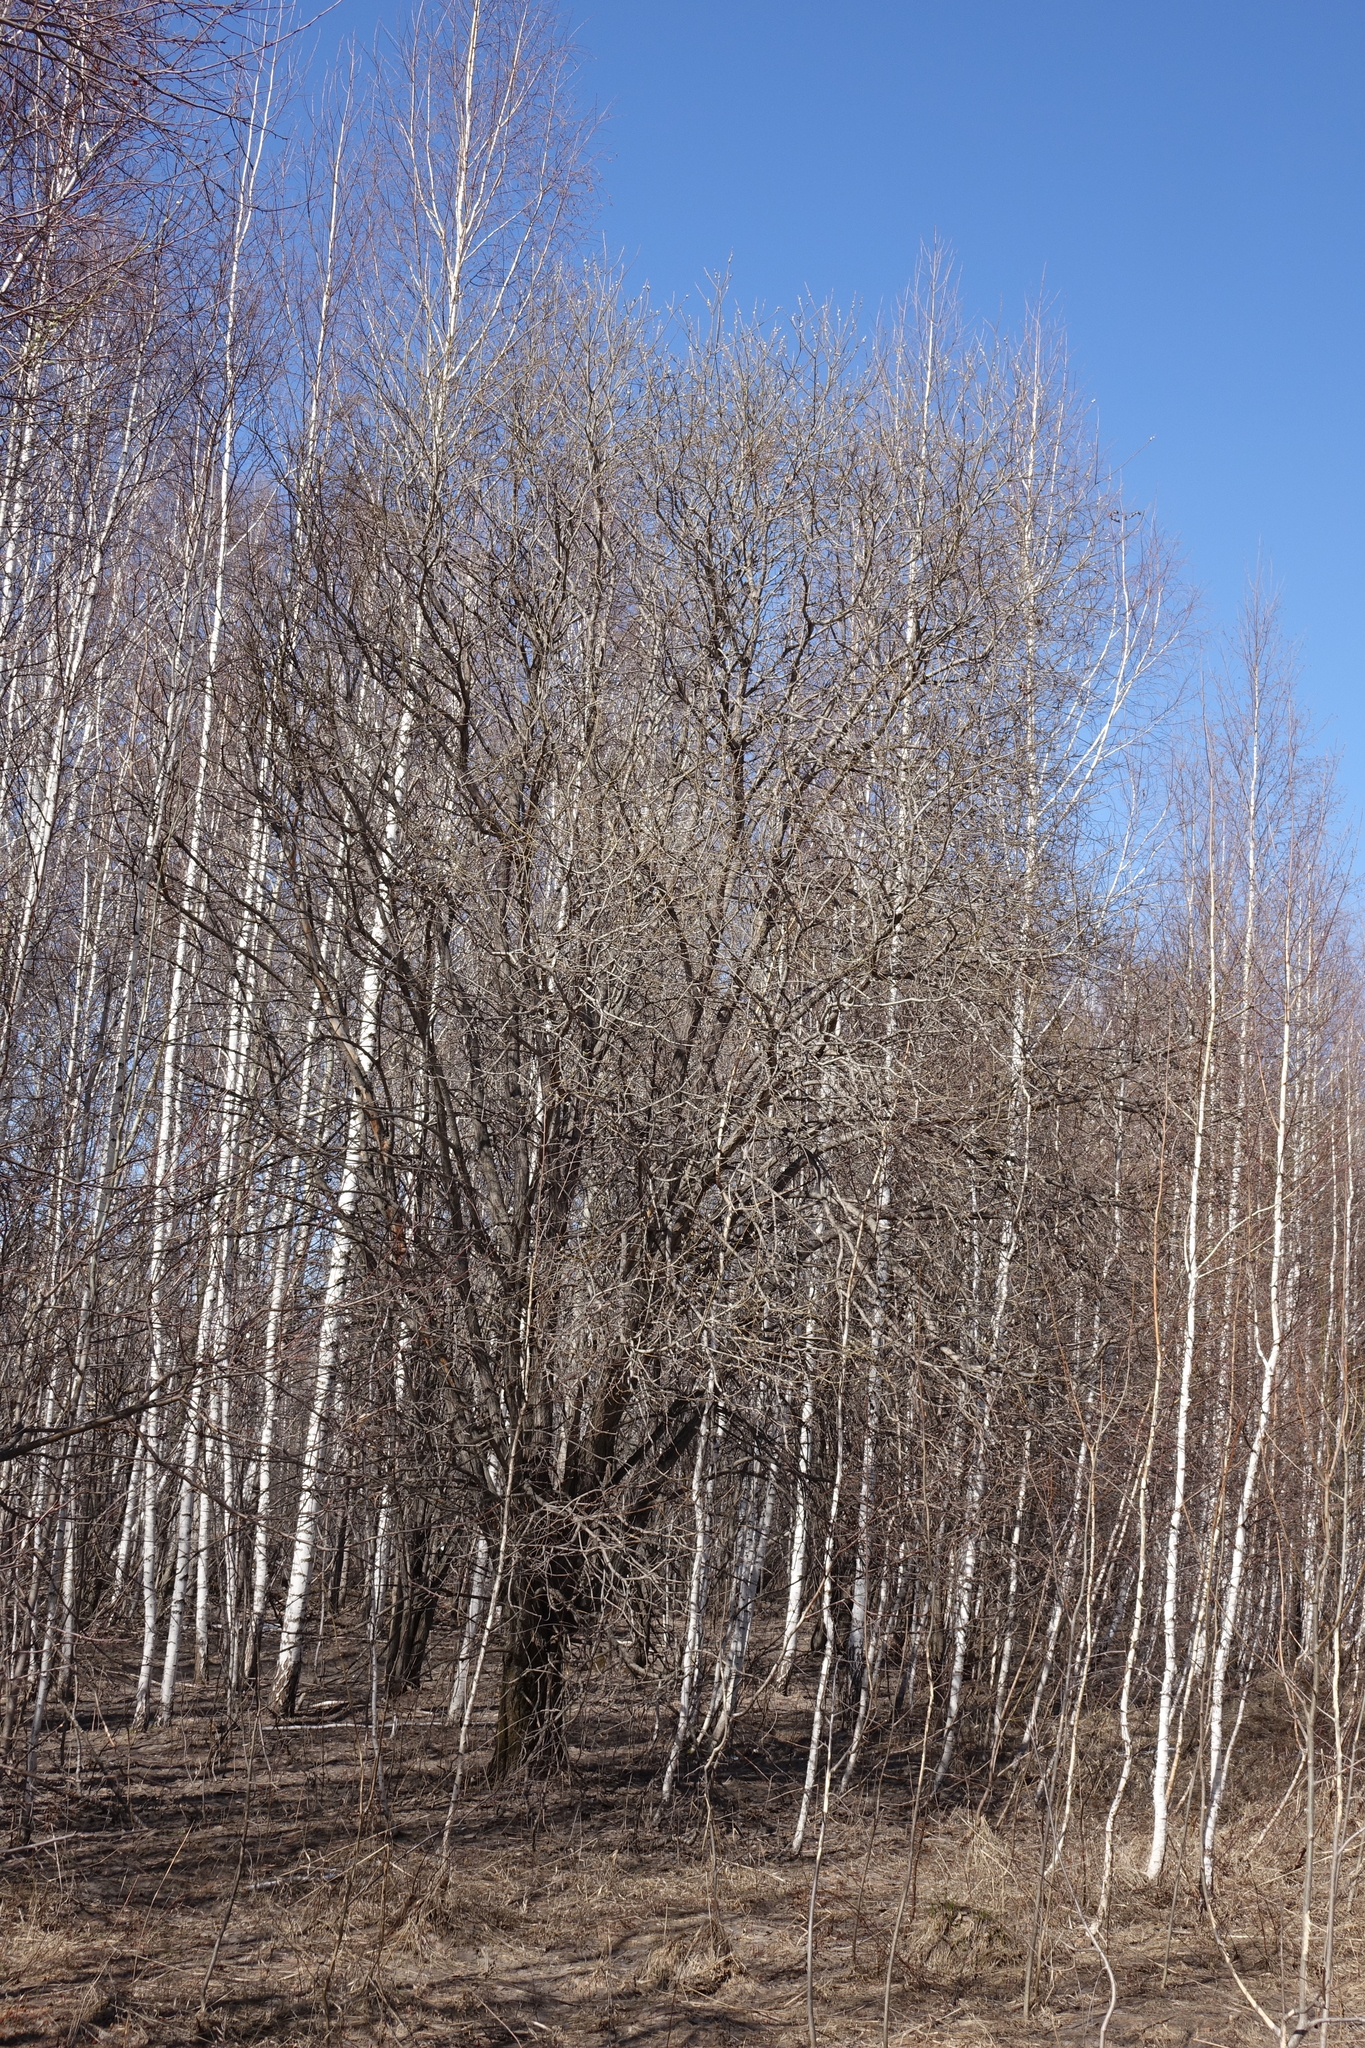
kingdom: Plantae
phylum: Tracheophyta
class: Magnoliopsida
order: Malpighiales
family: Salicaceae
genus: Salix
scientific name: Salix caprea
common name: Goat willow
